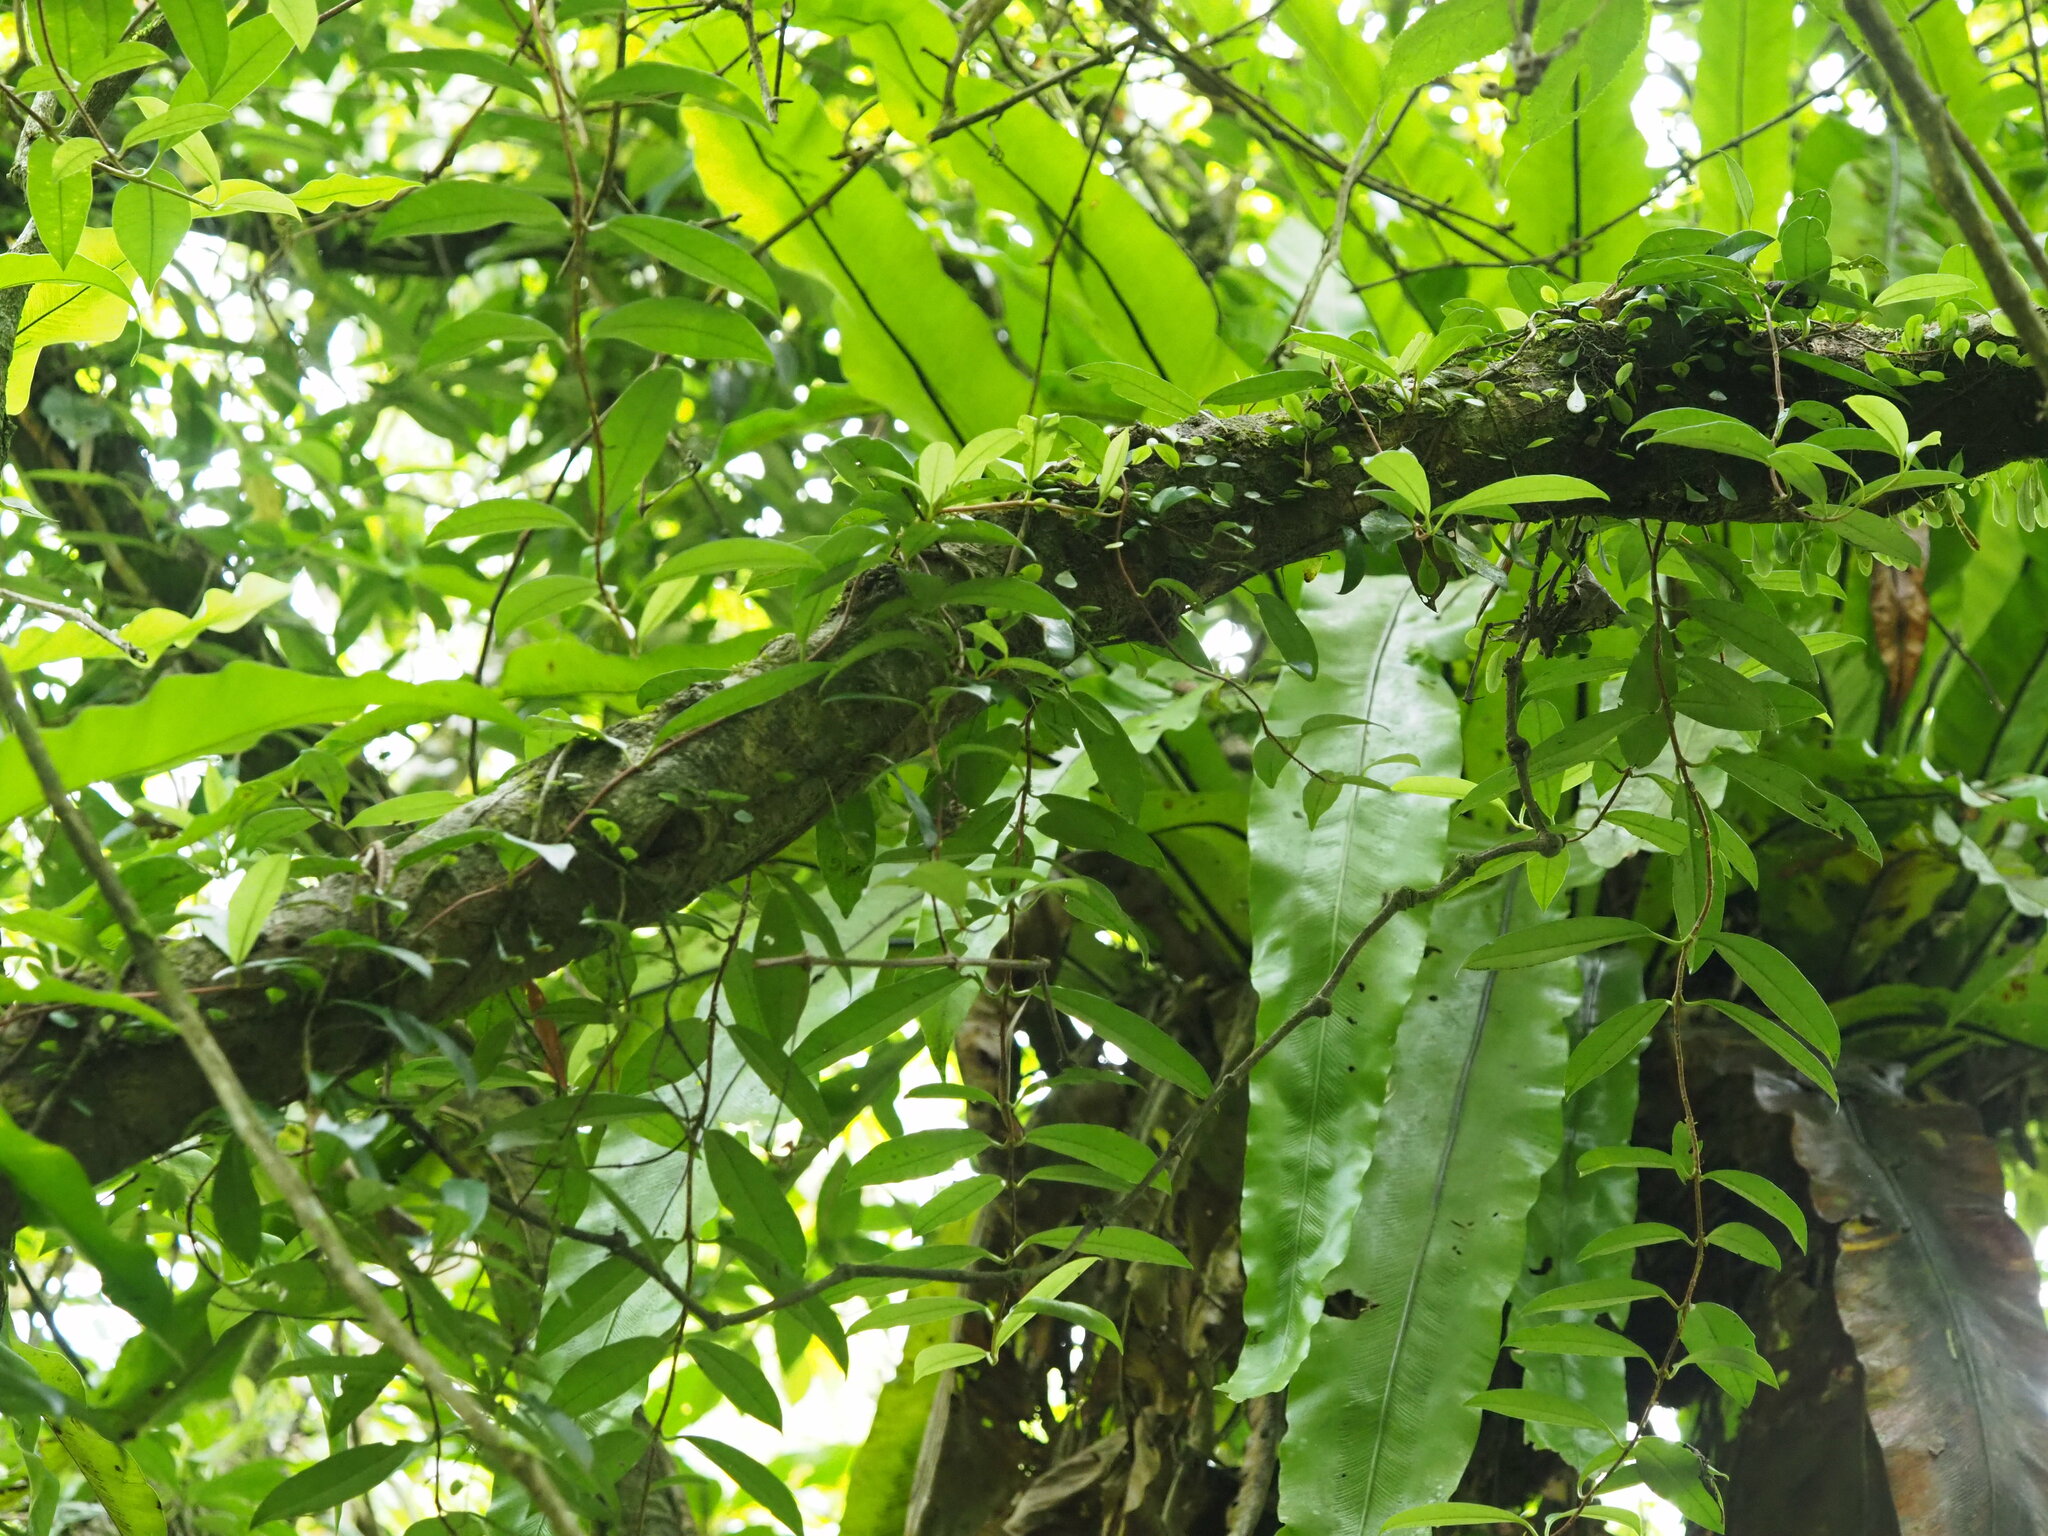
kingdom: Plantae
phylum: Tracheophyta
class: Magnoliopsida
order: Cornales
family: Hydrangeaceae
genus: Hydrangea
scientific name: Hydrangea viburnoides
